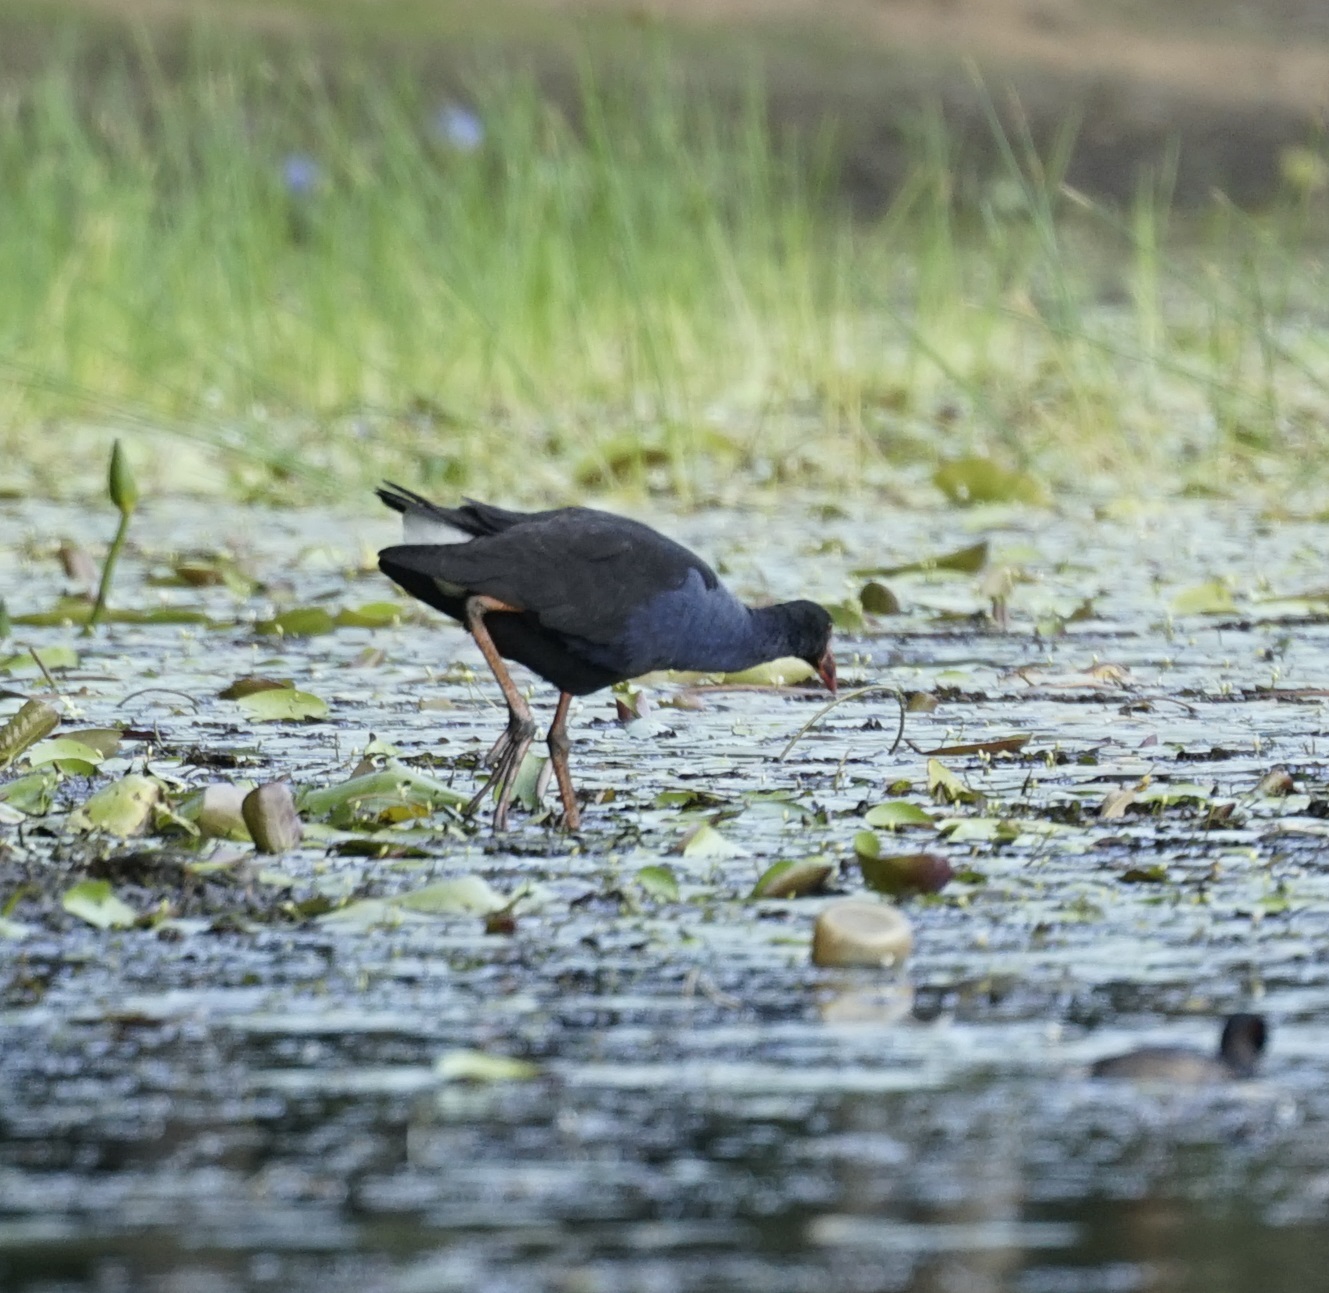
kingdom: Animalia
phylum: Chordata
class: Aves
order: Gruiformes
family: Rallidae
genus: Porphyrio
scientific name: Porphyrio melanotus
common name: Australasian swamphen
